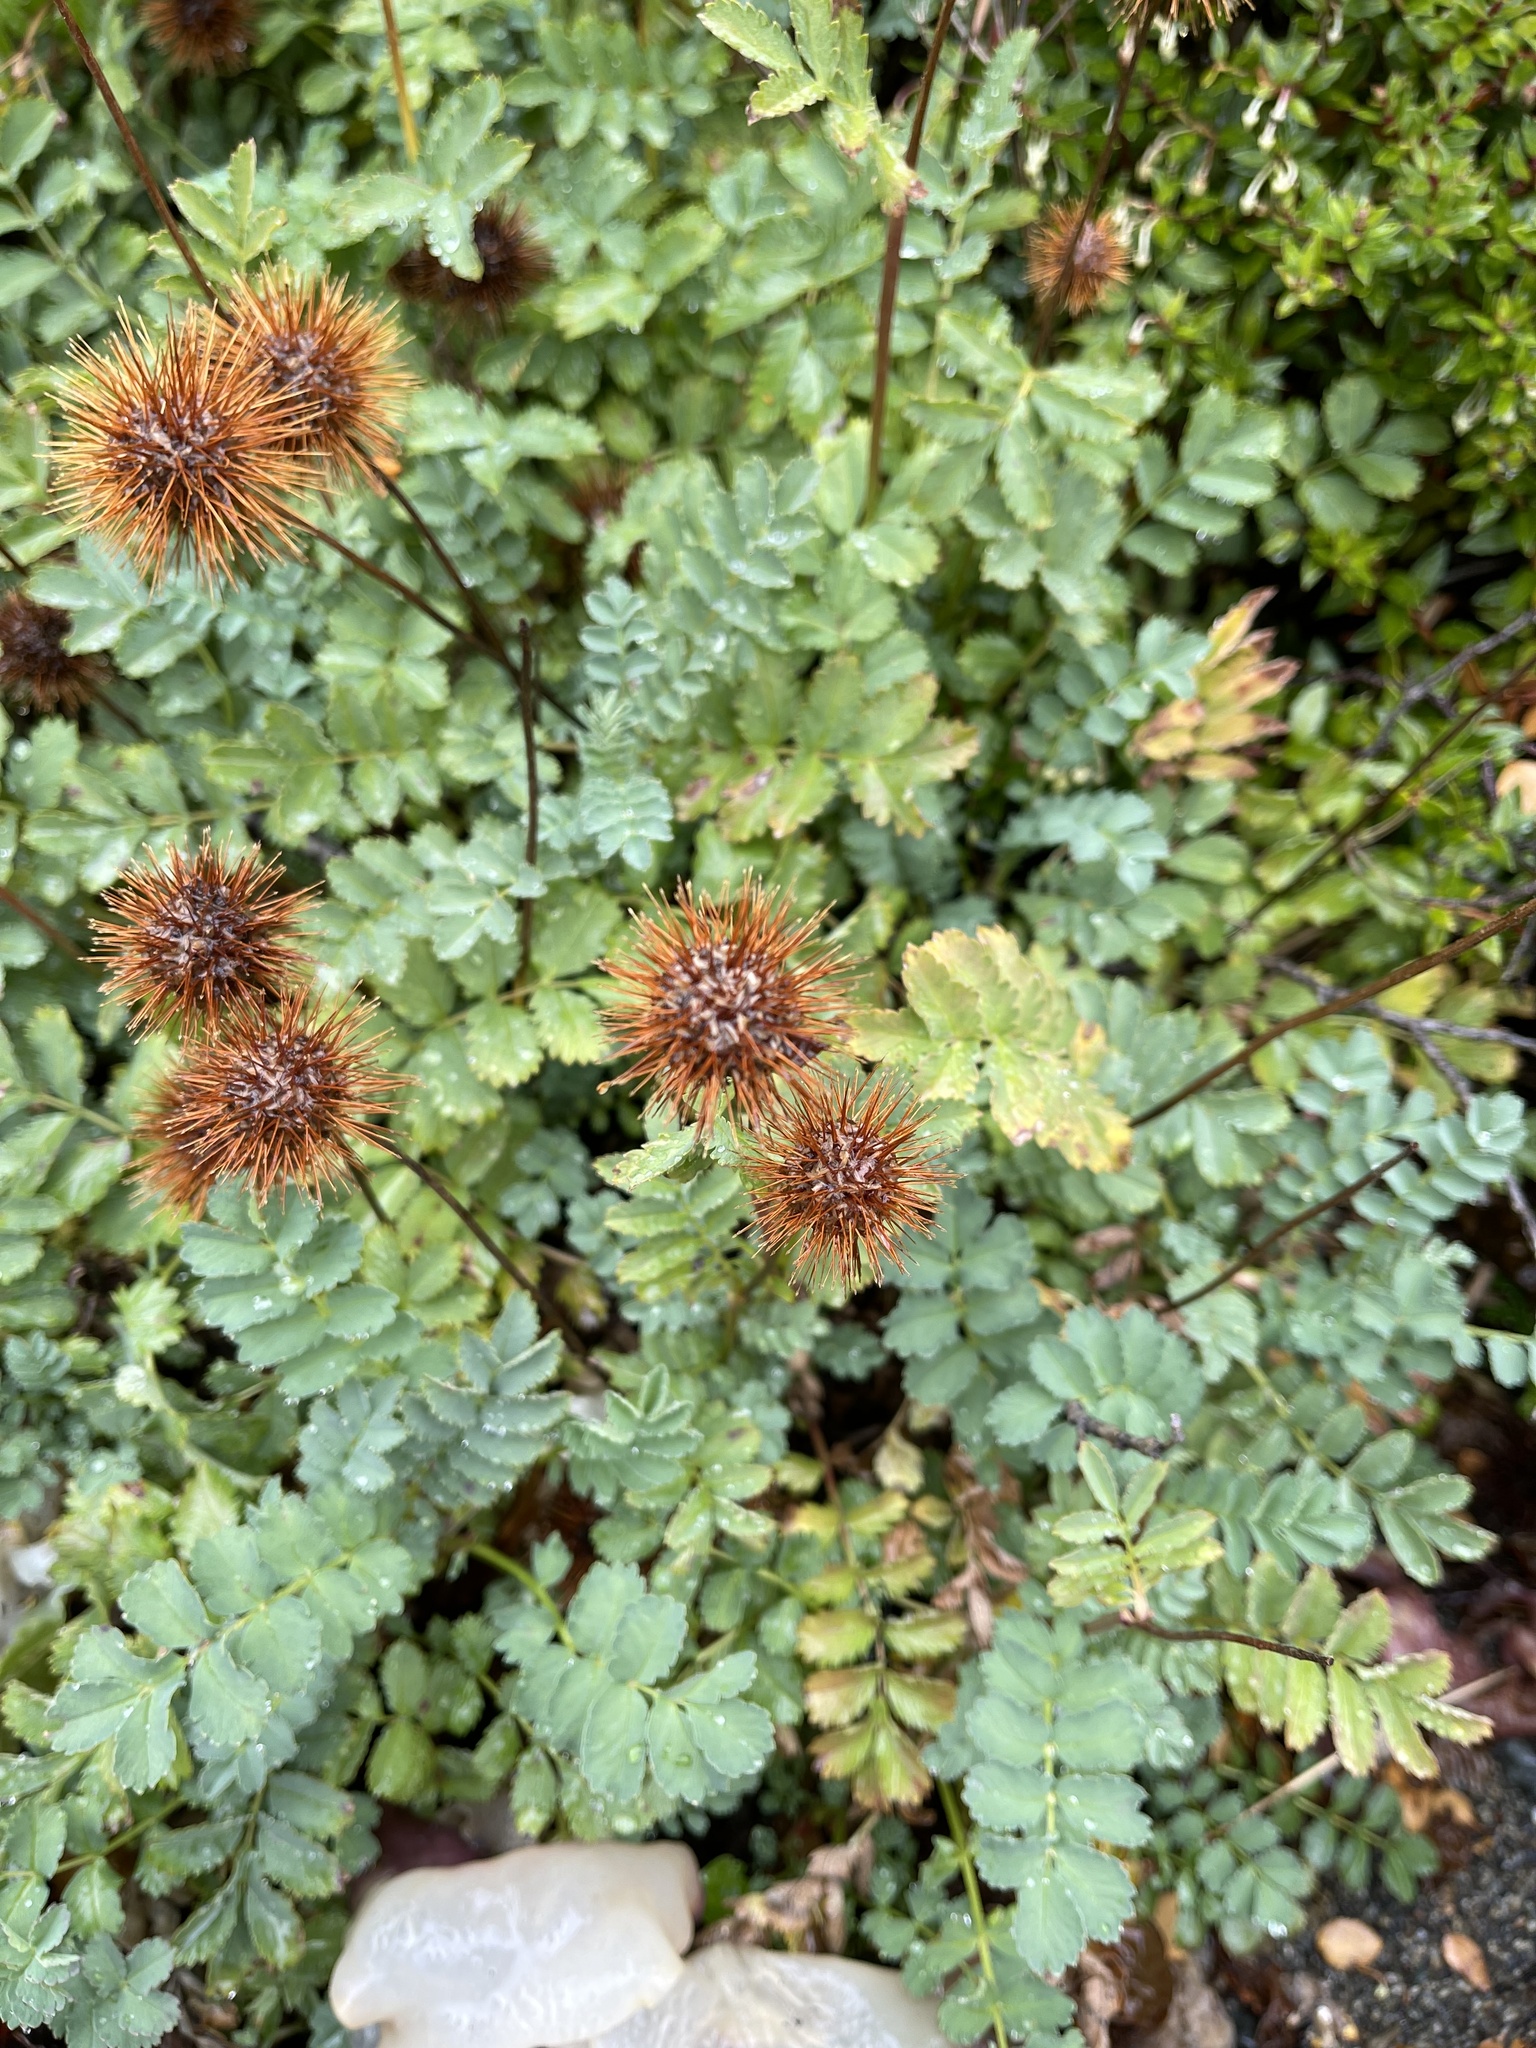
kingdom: Plantae
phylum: Tracheophyta
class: Magnoliopsida
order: Rosales
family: Rosaceae
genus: Acaena
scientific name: Acaena magellanica
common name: New zealand burr
